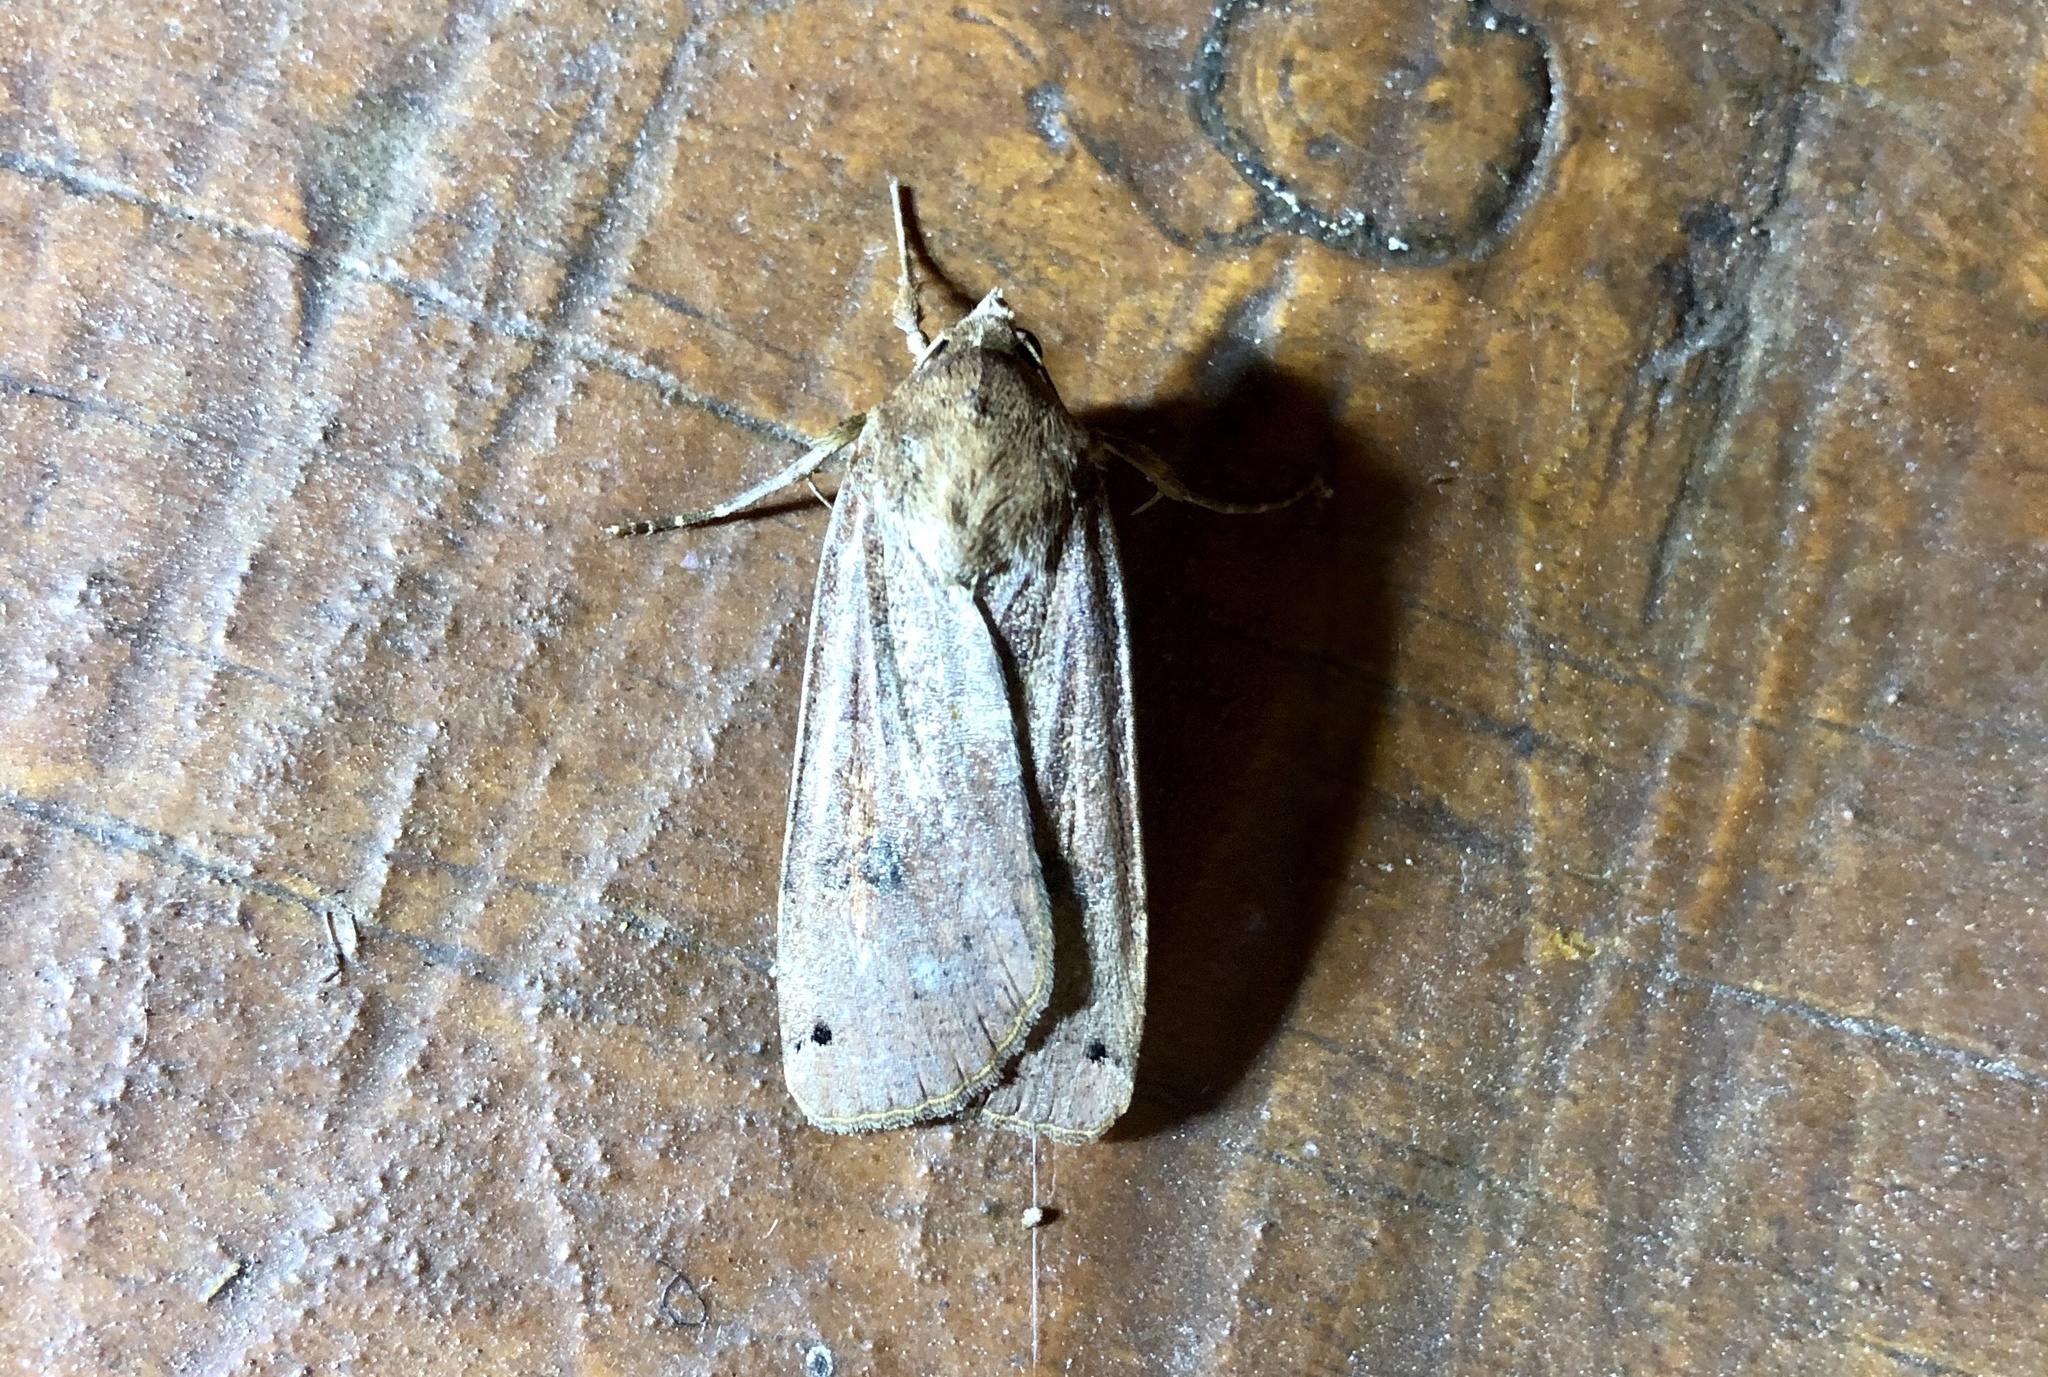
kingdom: Animalia
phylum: Arthropoda
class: Insecta
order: Lepidoptera
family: Noctuidae
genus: Noctua
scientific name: Noctua pronuba
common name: Large yellow underwing
